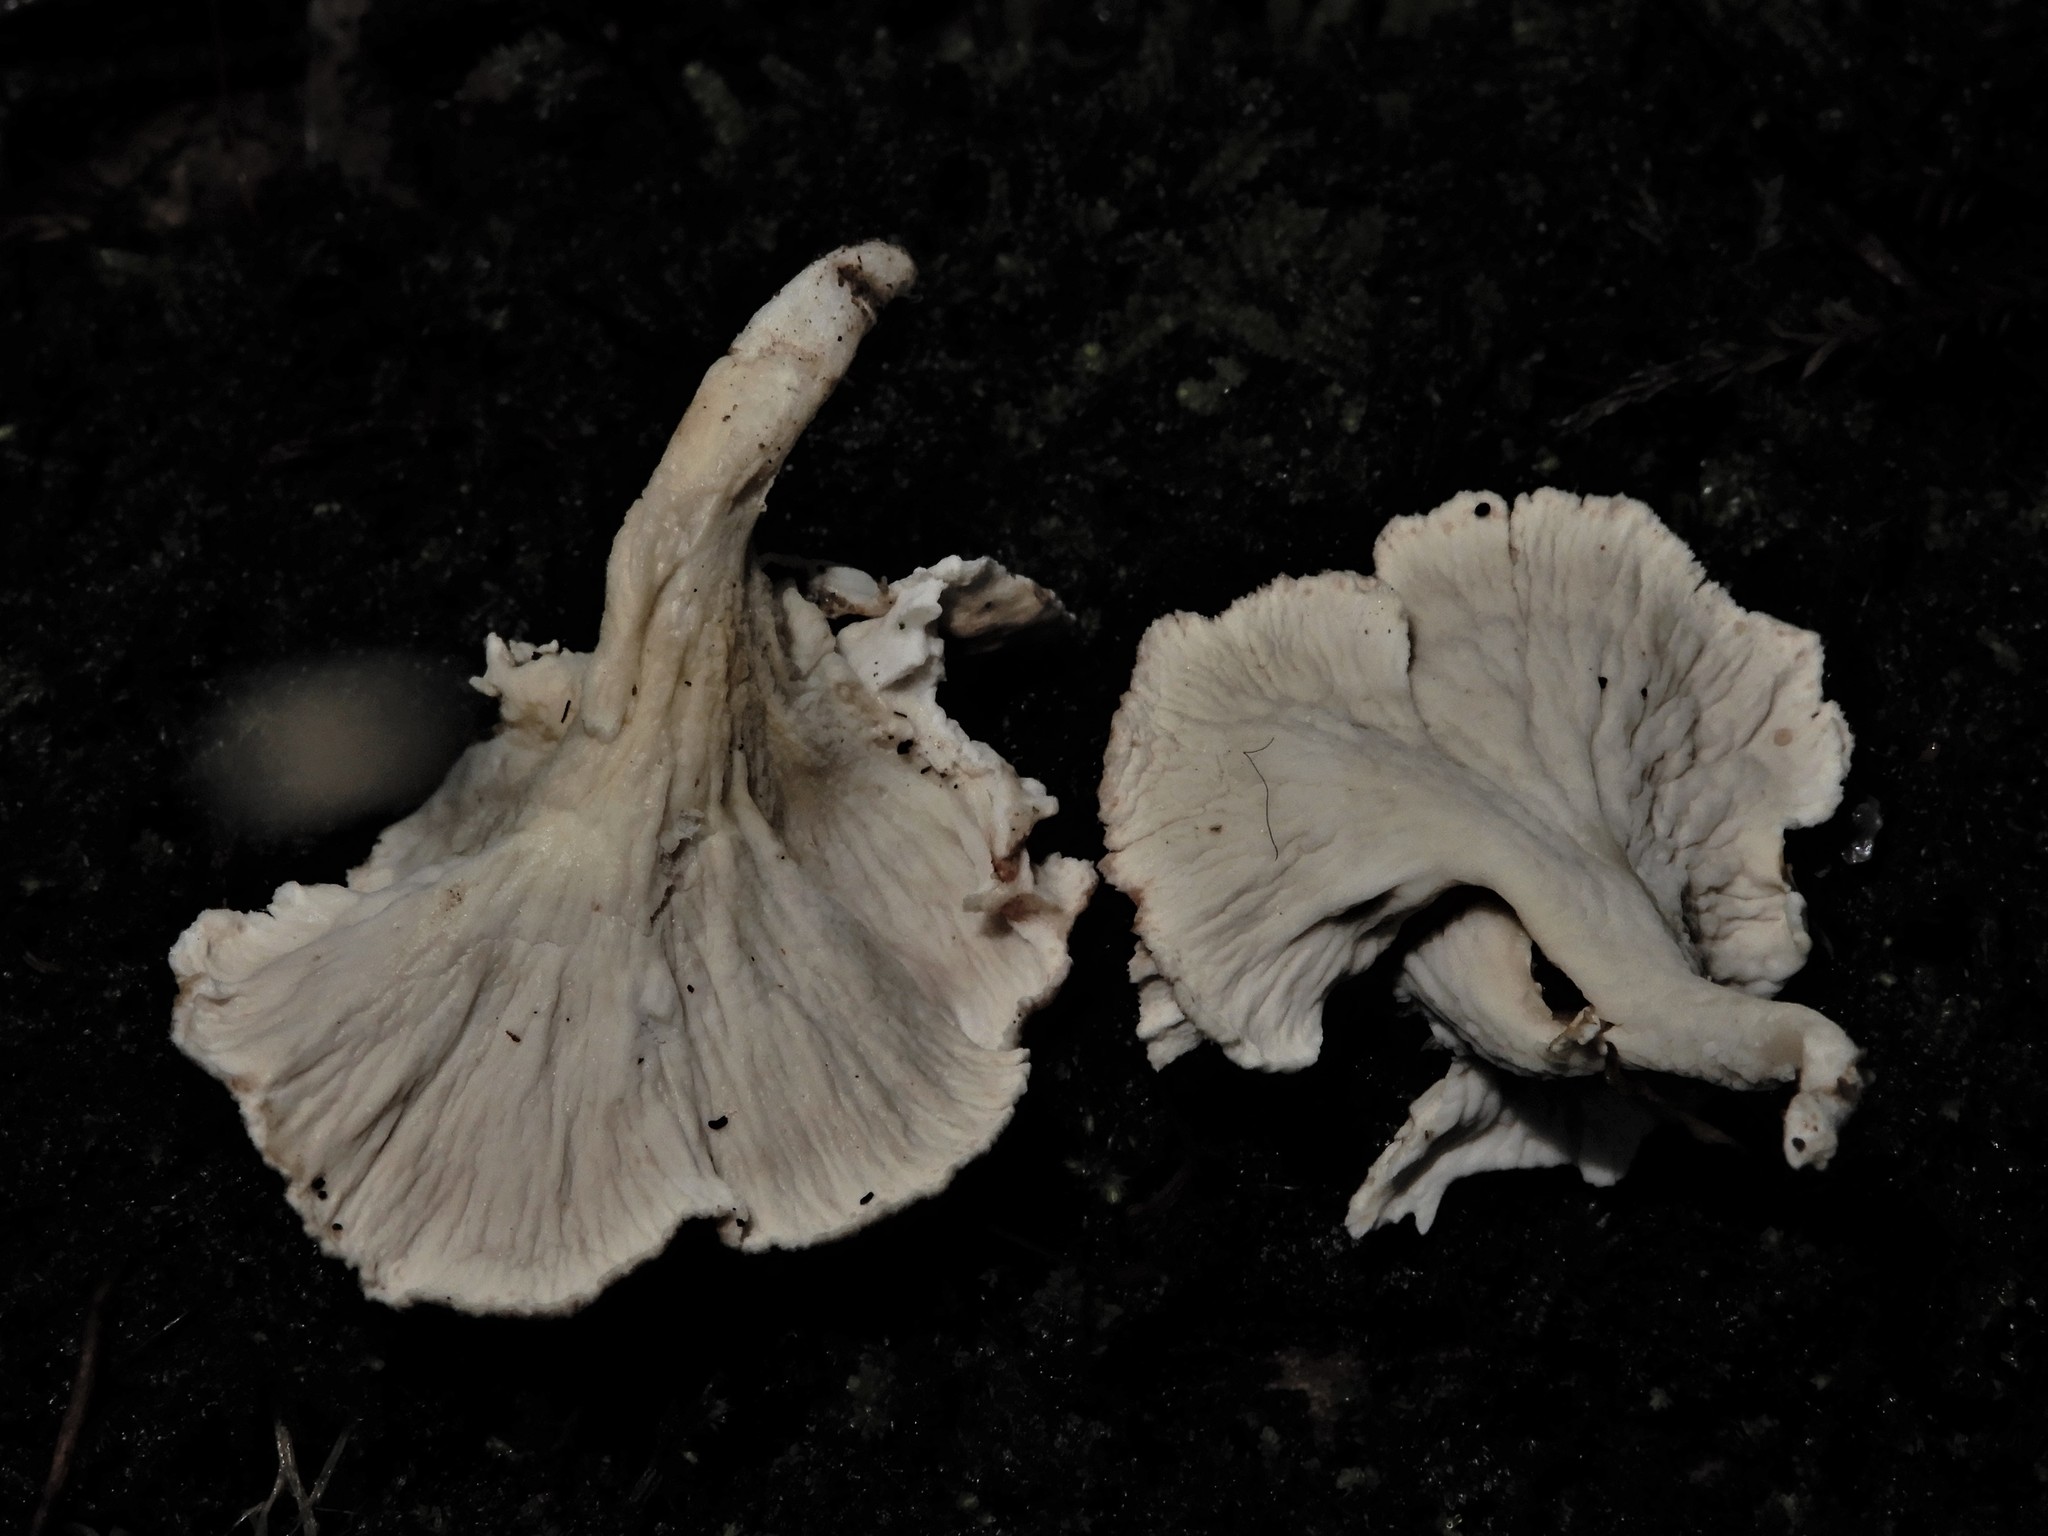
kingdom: Fungi
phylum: Basidiomycota
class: Agaricomycetes
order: Amylocorticiales
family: Amylocorticiaceae
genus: Podoserpula
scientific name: Podoserpula
